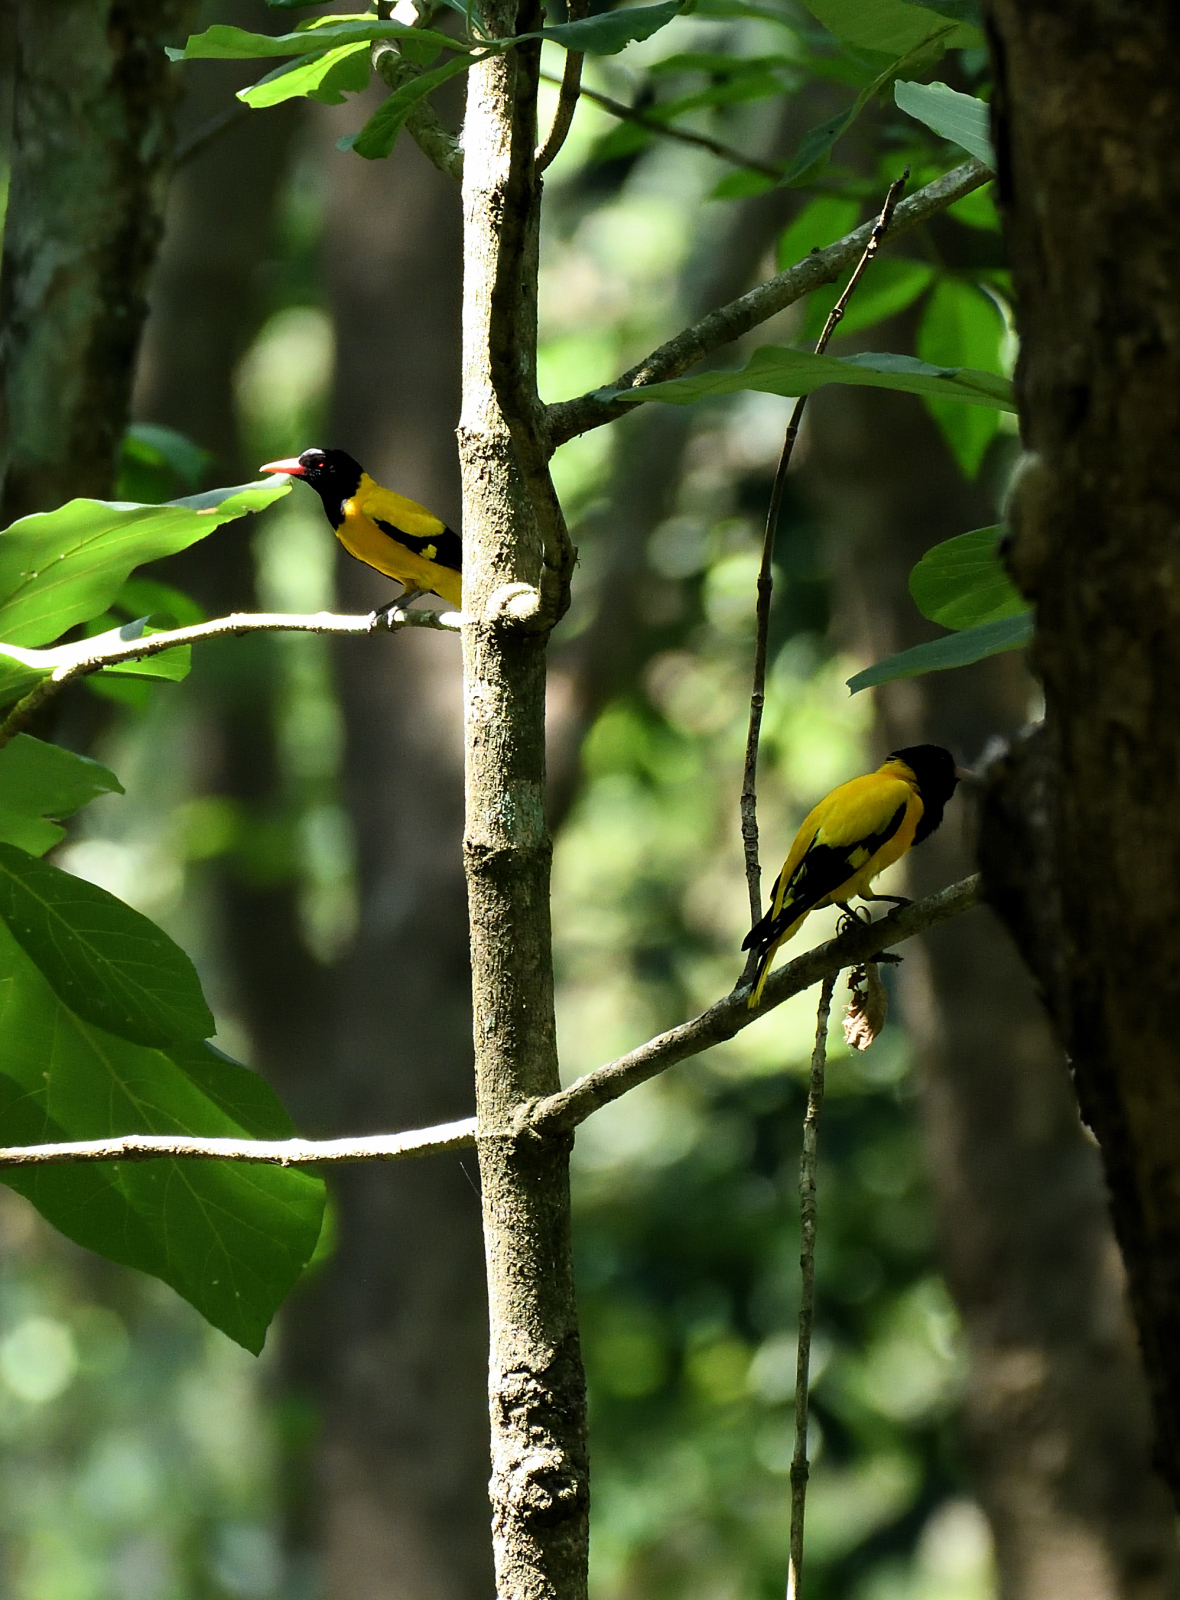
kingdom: Animalia
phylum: Chordata
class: Aves
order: Passeriformes
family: Oriolidae
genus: Oriolus
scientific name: Oriolus xanthornus
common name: Black-hooded oriole
